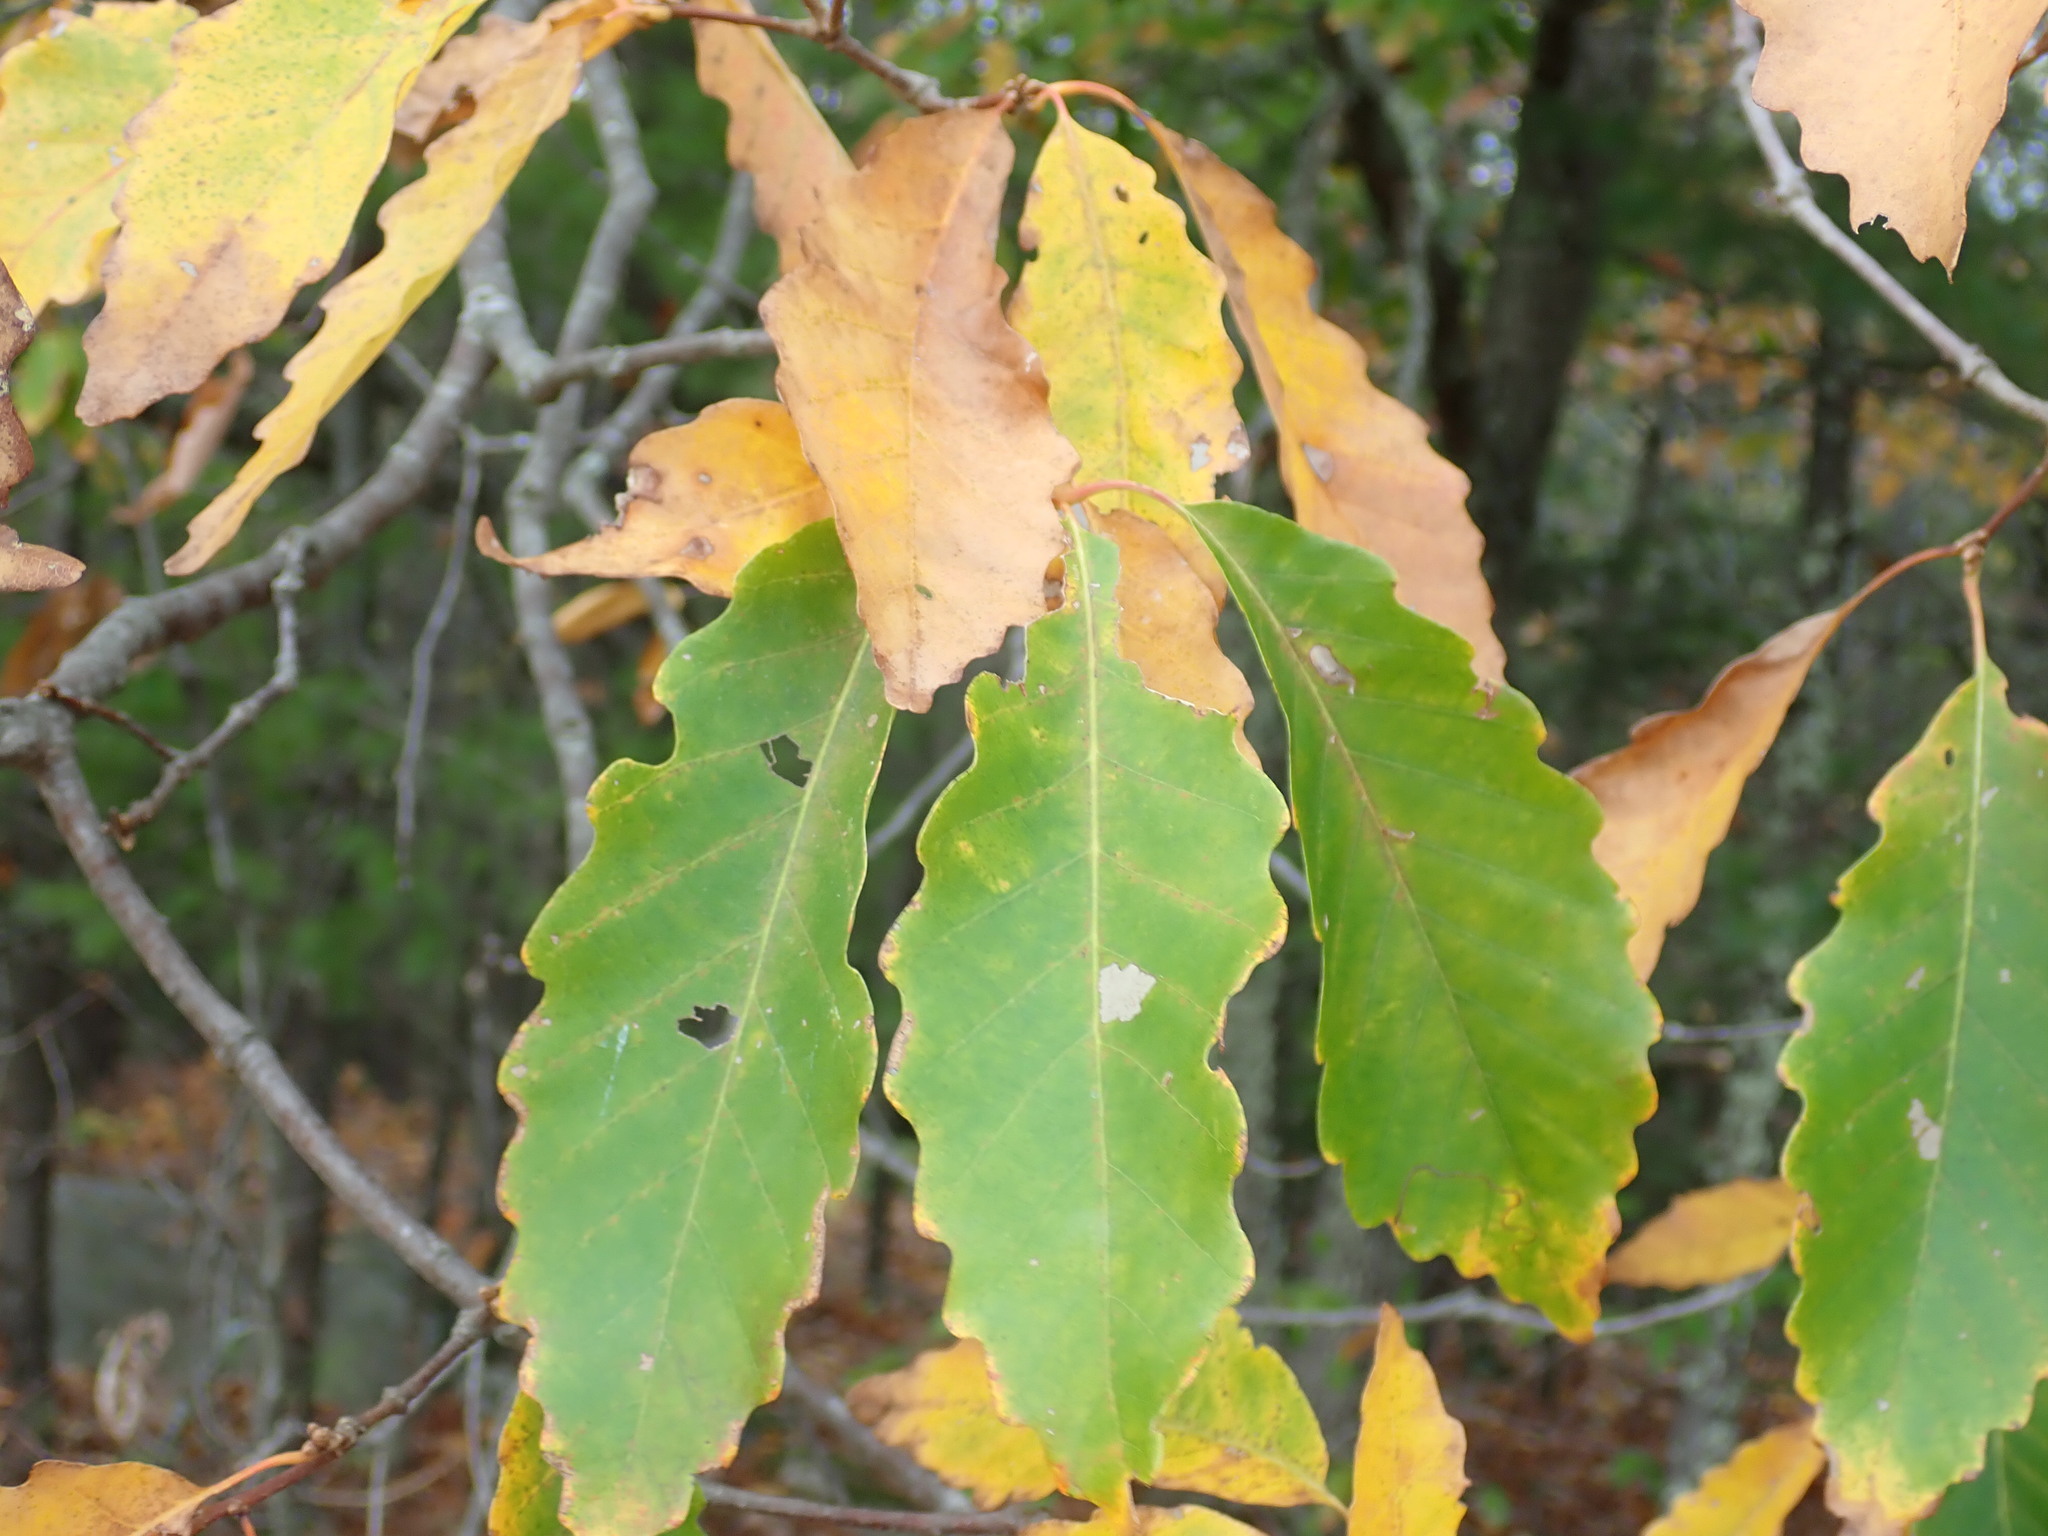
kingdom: Plantae
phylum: Tracheophyta
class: Magnoliopsida
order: Fagales
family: Fagaceae
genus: Quercus
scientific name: Quercus montana
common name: Chestnut oak
